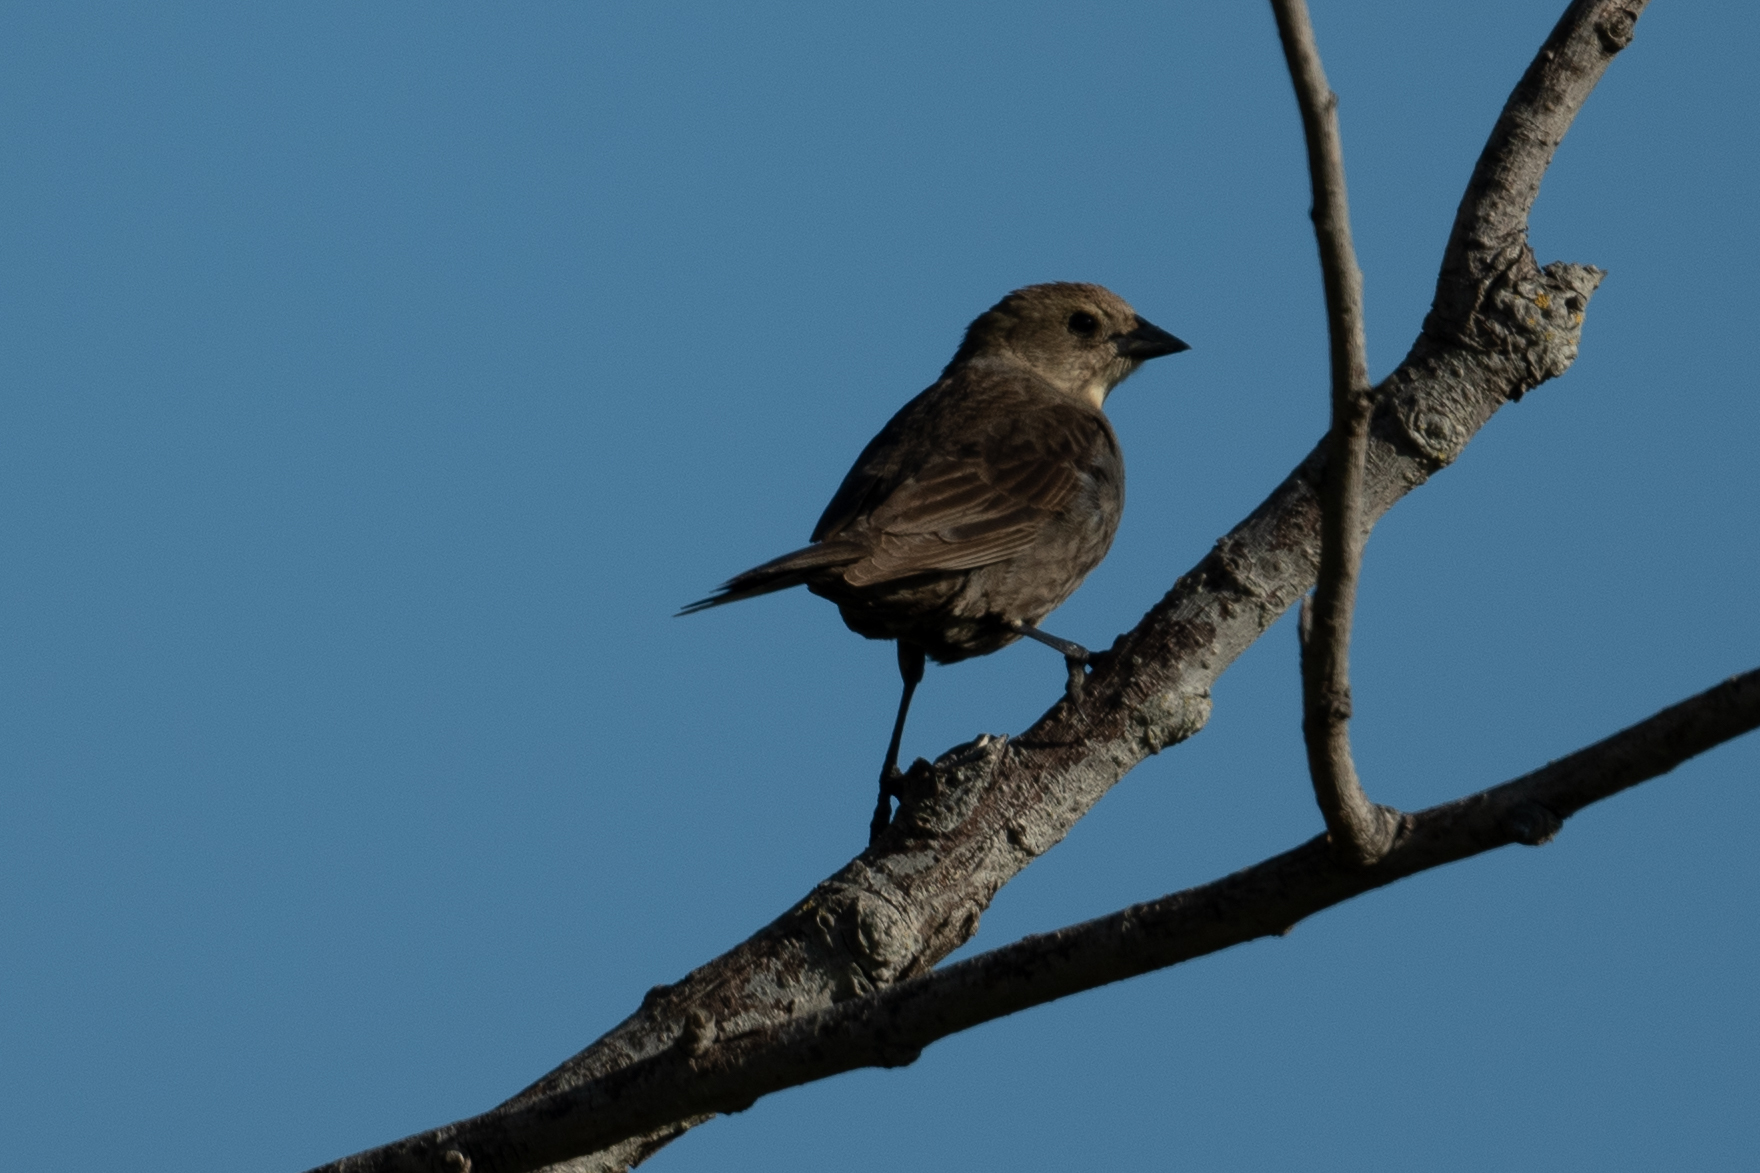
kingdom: Animalia
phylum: Chordata
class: Aves
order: Passeriformes
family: Icteridae
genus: Molothrus
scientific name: Molothrus ater
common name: Brown-headed cowbird
